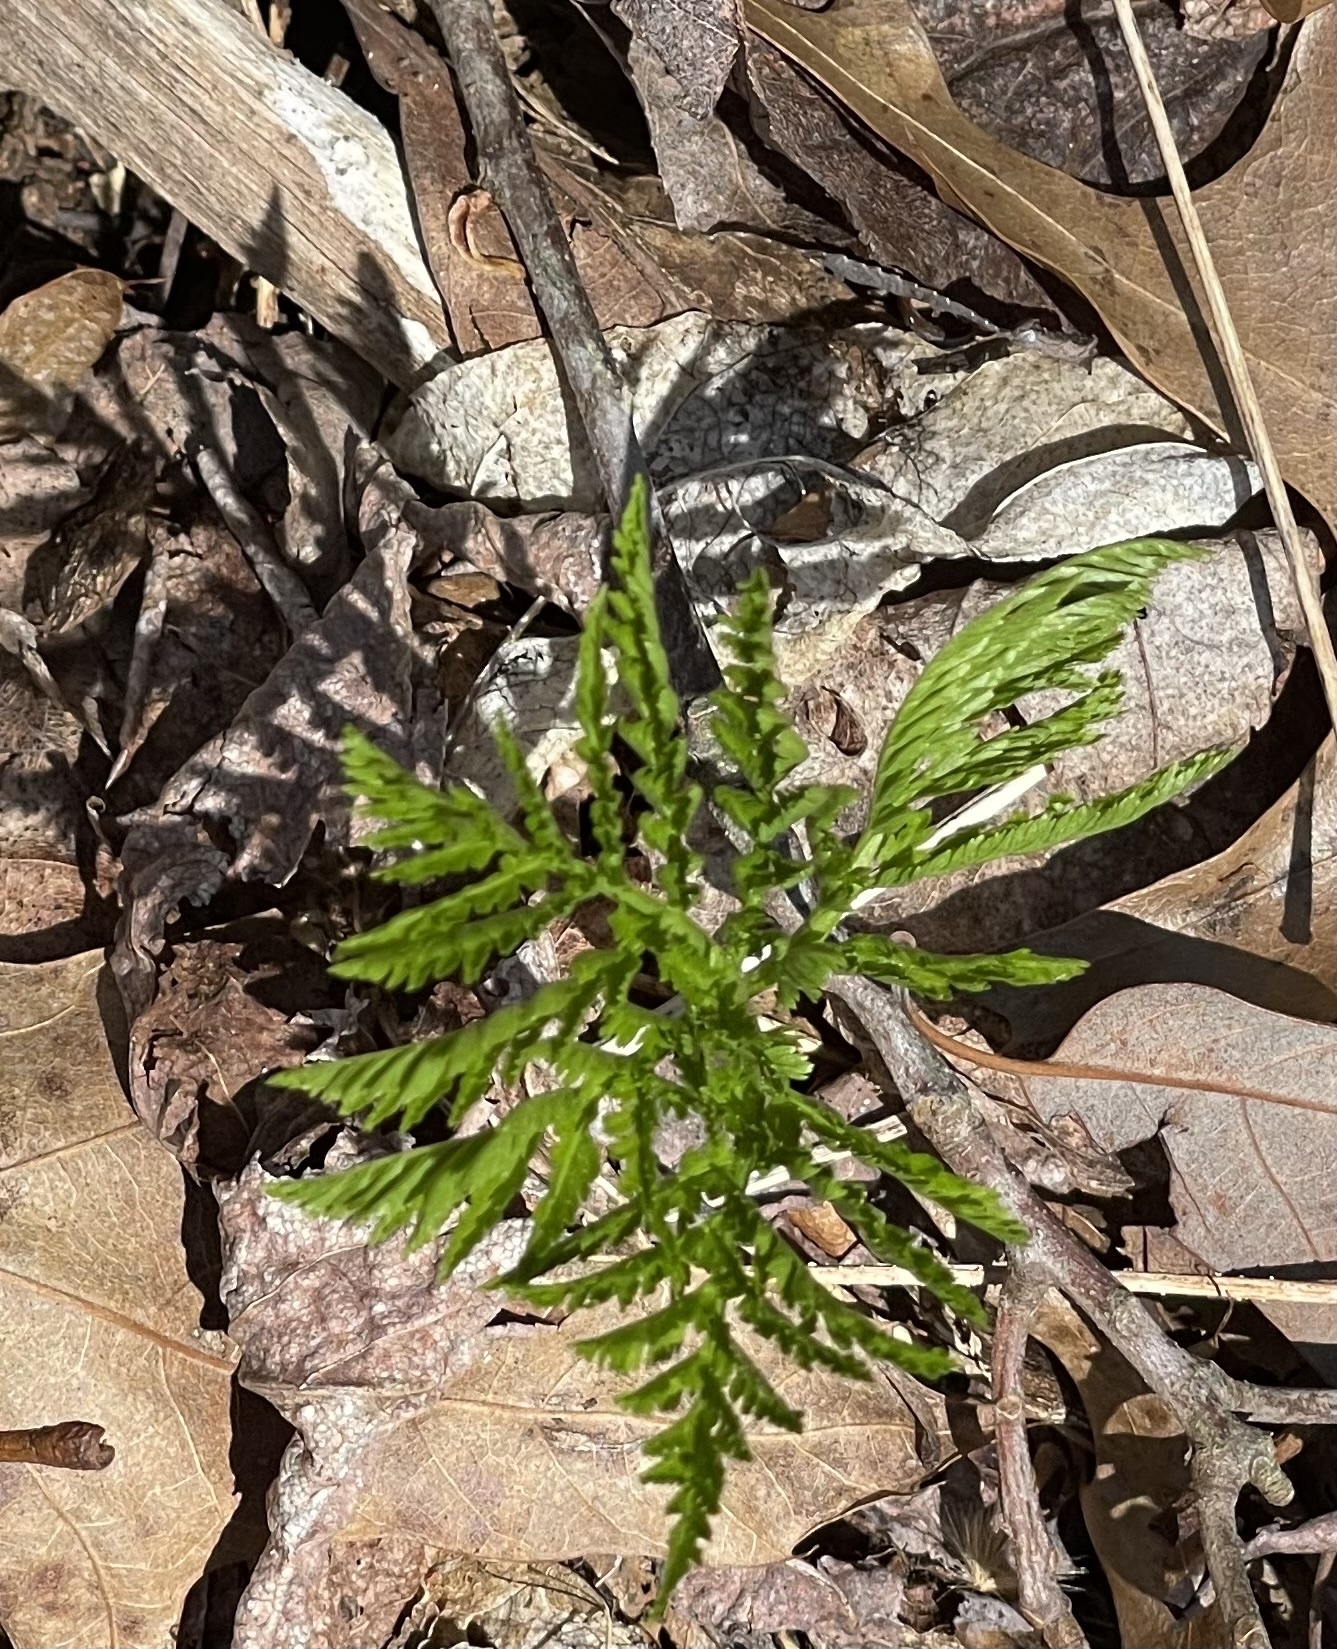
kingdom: Plantae
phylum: Tracheophyta
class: Polypodiopsida
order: Ophioglossales
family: Ophioglossaceae
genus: Botrypus
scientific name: Botrypus virginianus
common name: Common grapefern
